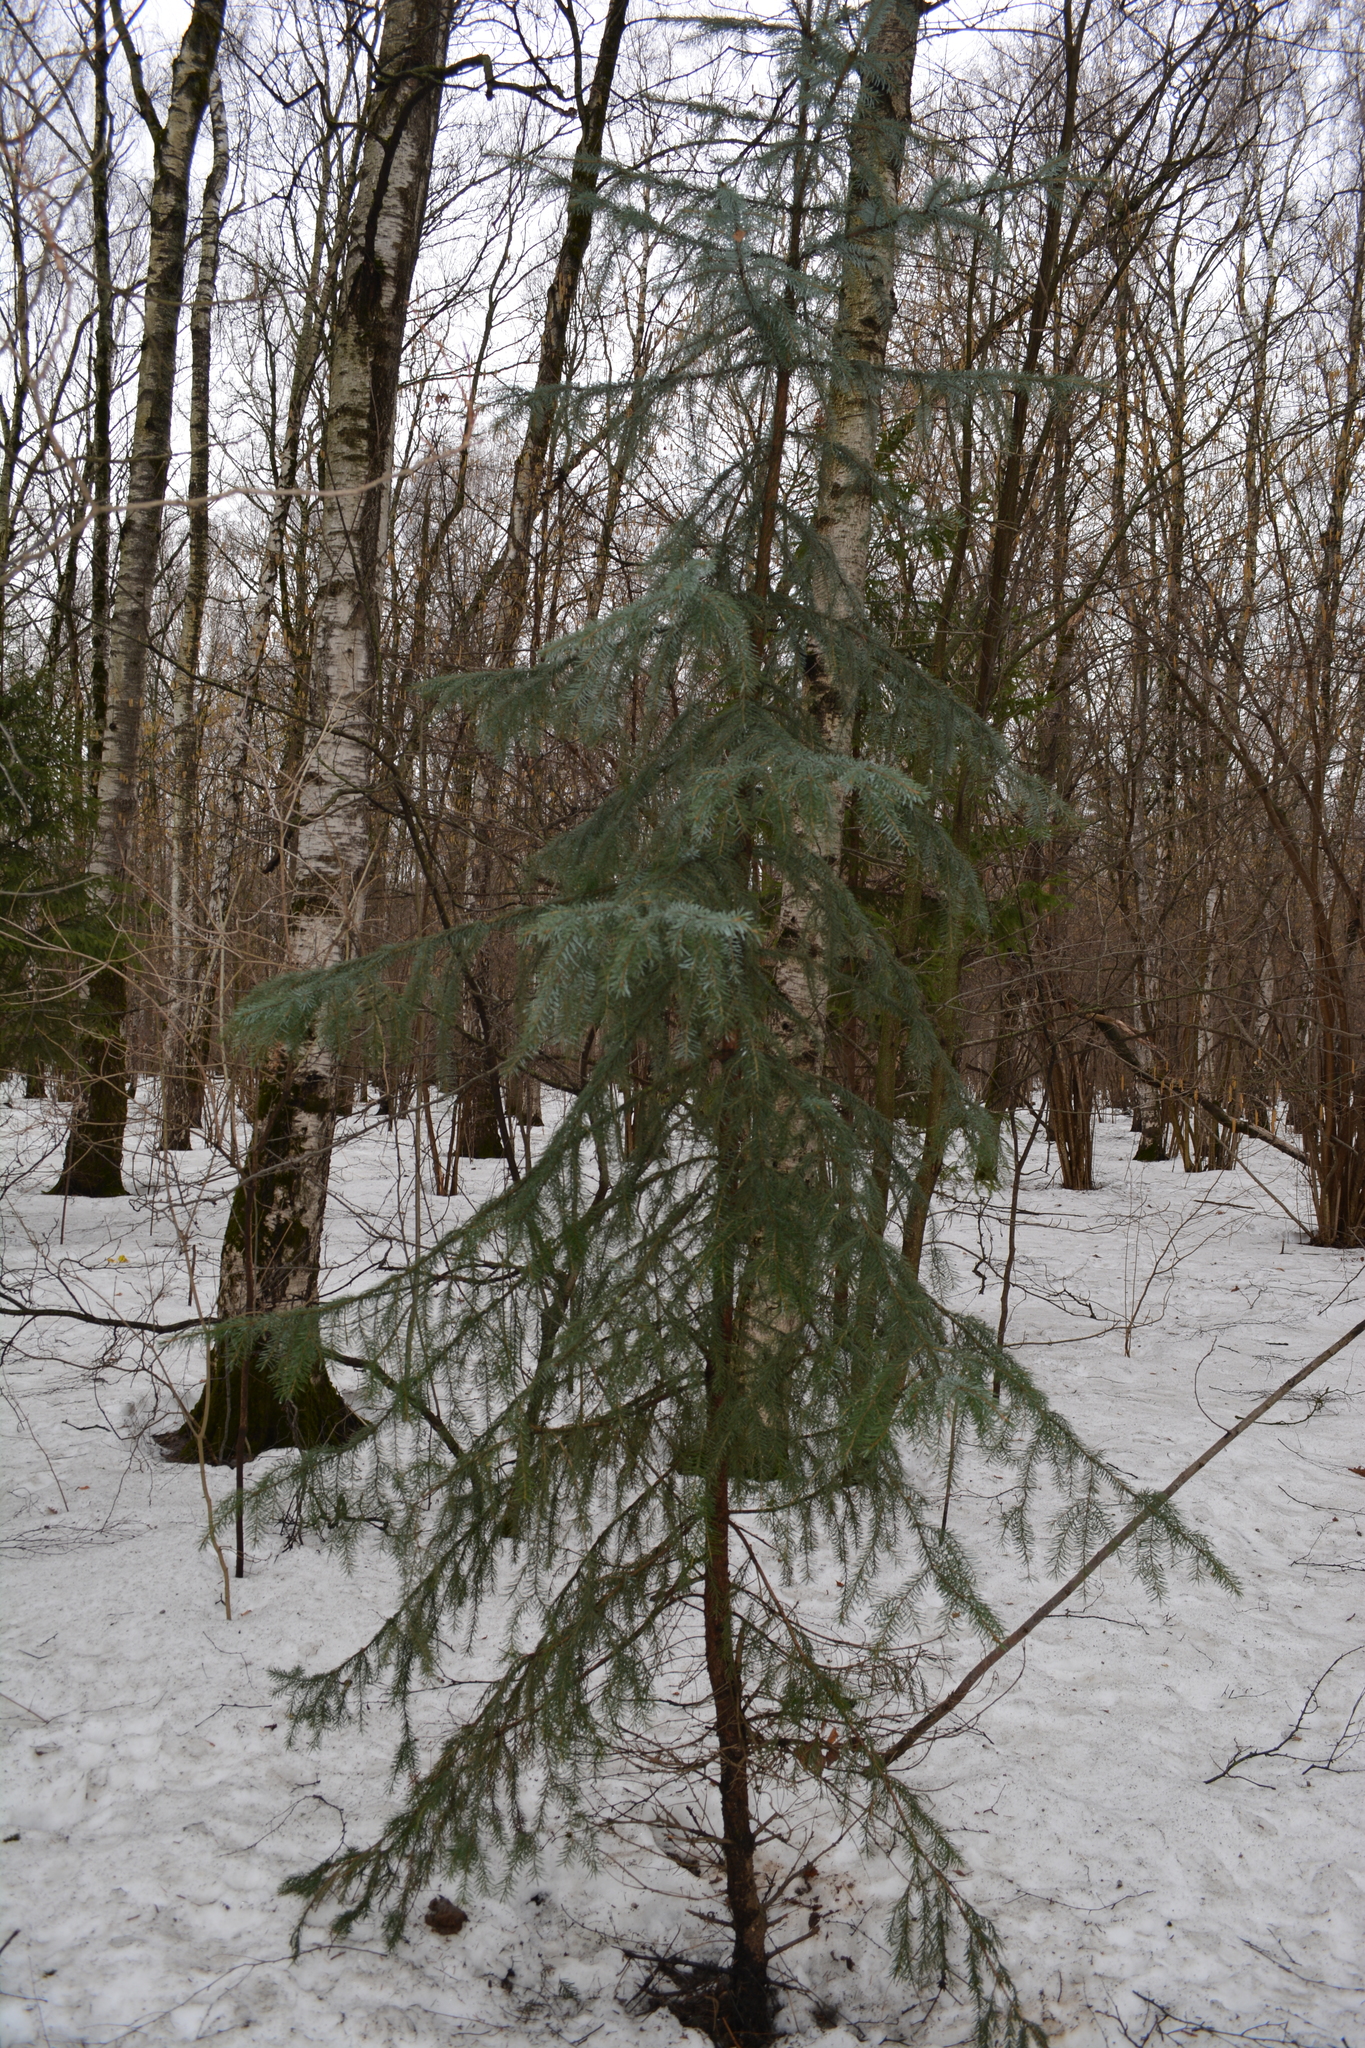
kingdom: Plantae
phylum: Tracheophyta
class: Pinopsida
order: Pinales
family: Pinaceae
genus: Picea
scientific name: Picea abies
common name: Norway spruce
